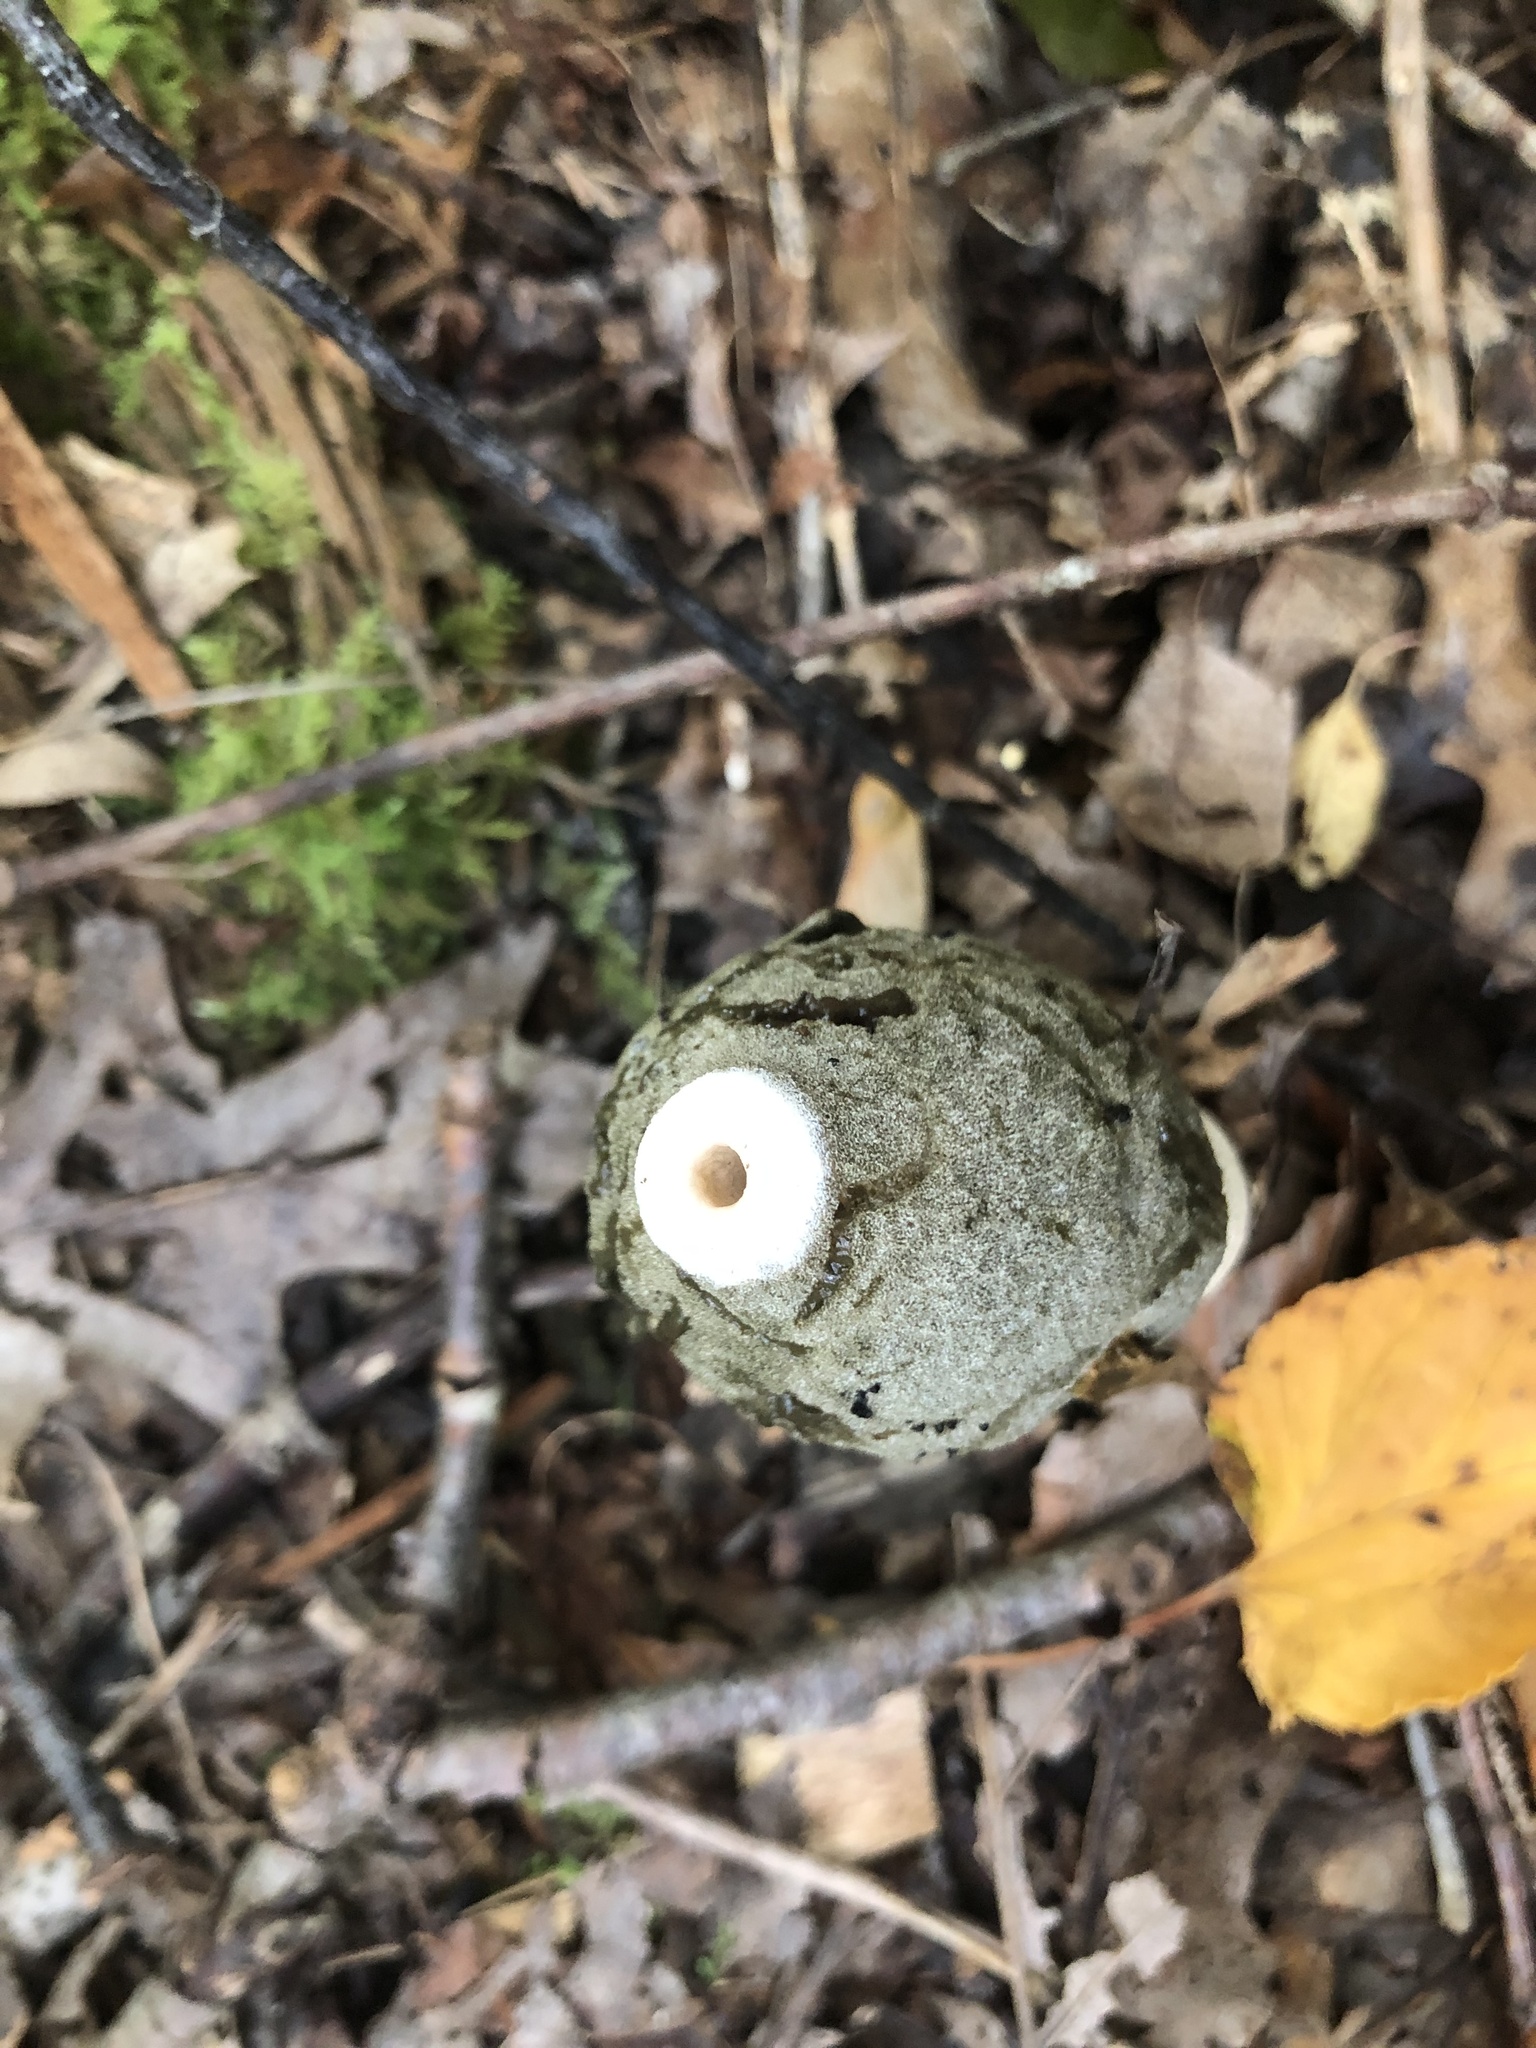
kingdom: Fungi
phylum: Basidiomycota
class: Agaricomycetes
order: Phallales
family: Phallaceae
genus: Phallus
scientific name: Phallus ravenelii
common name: Ravenel's stinkhorn
